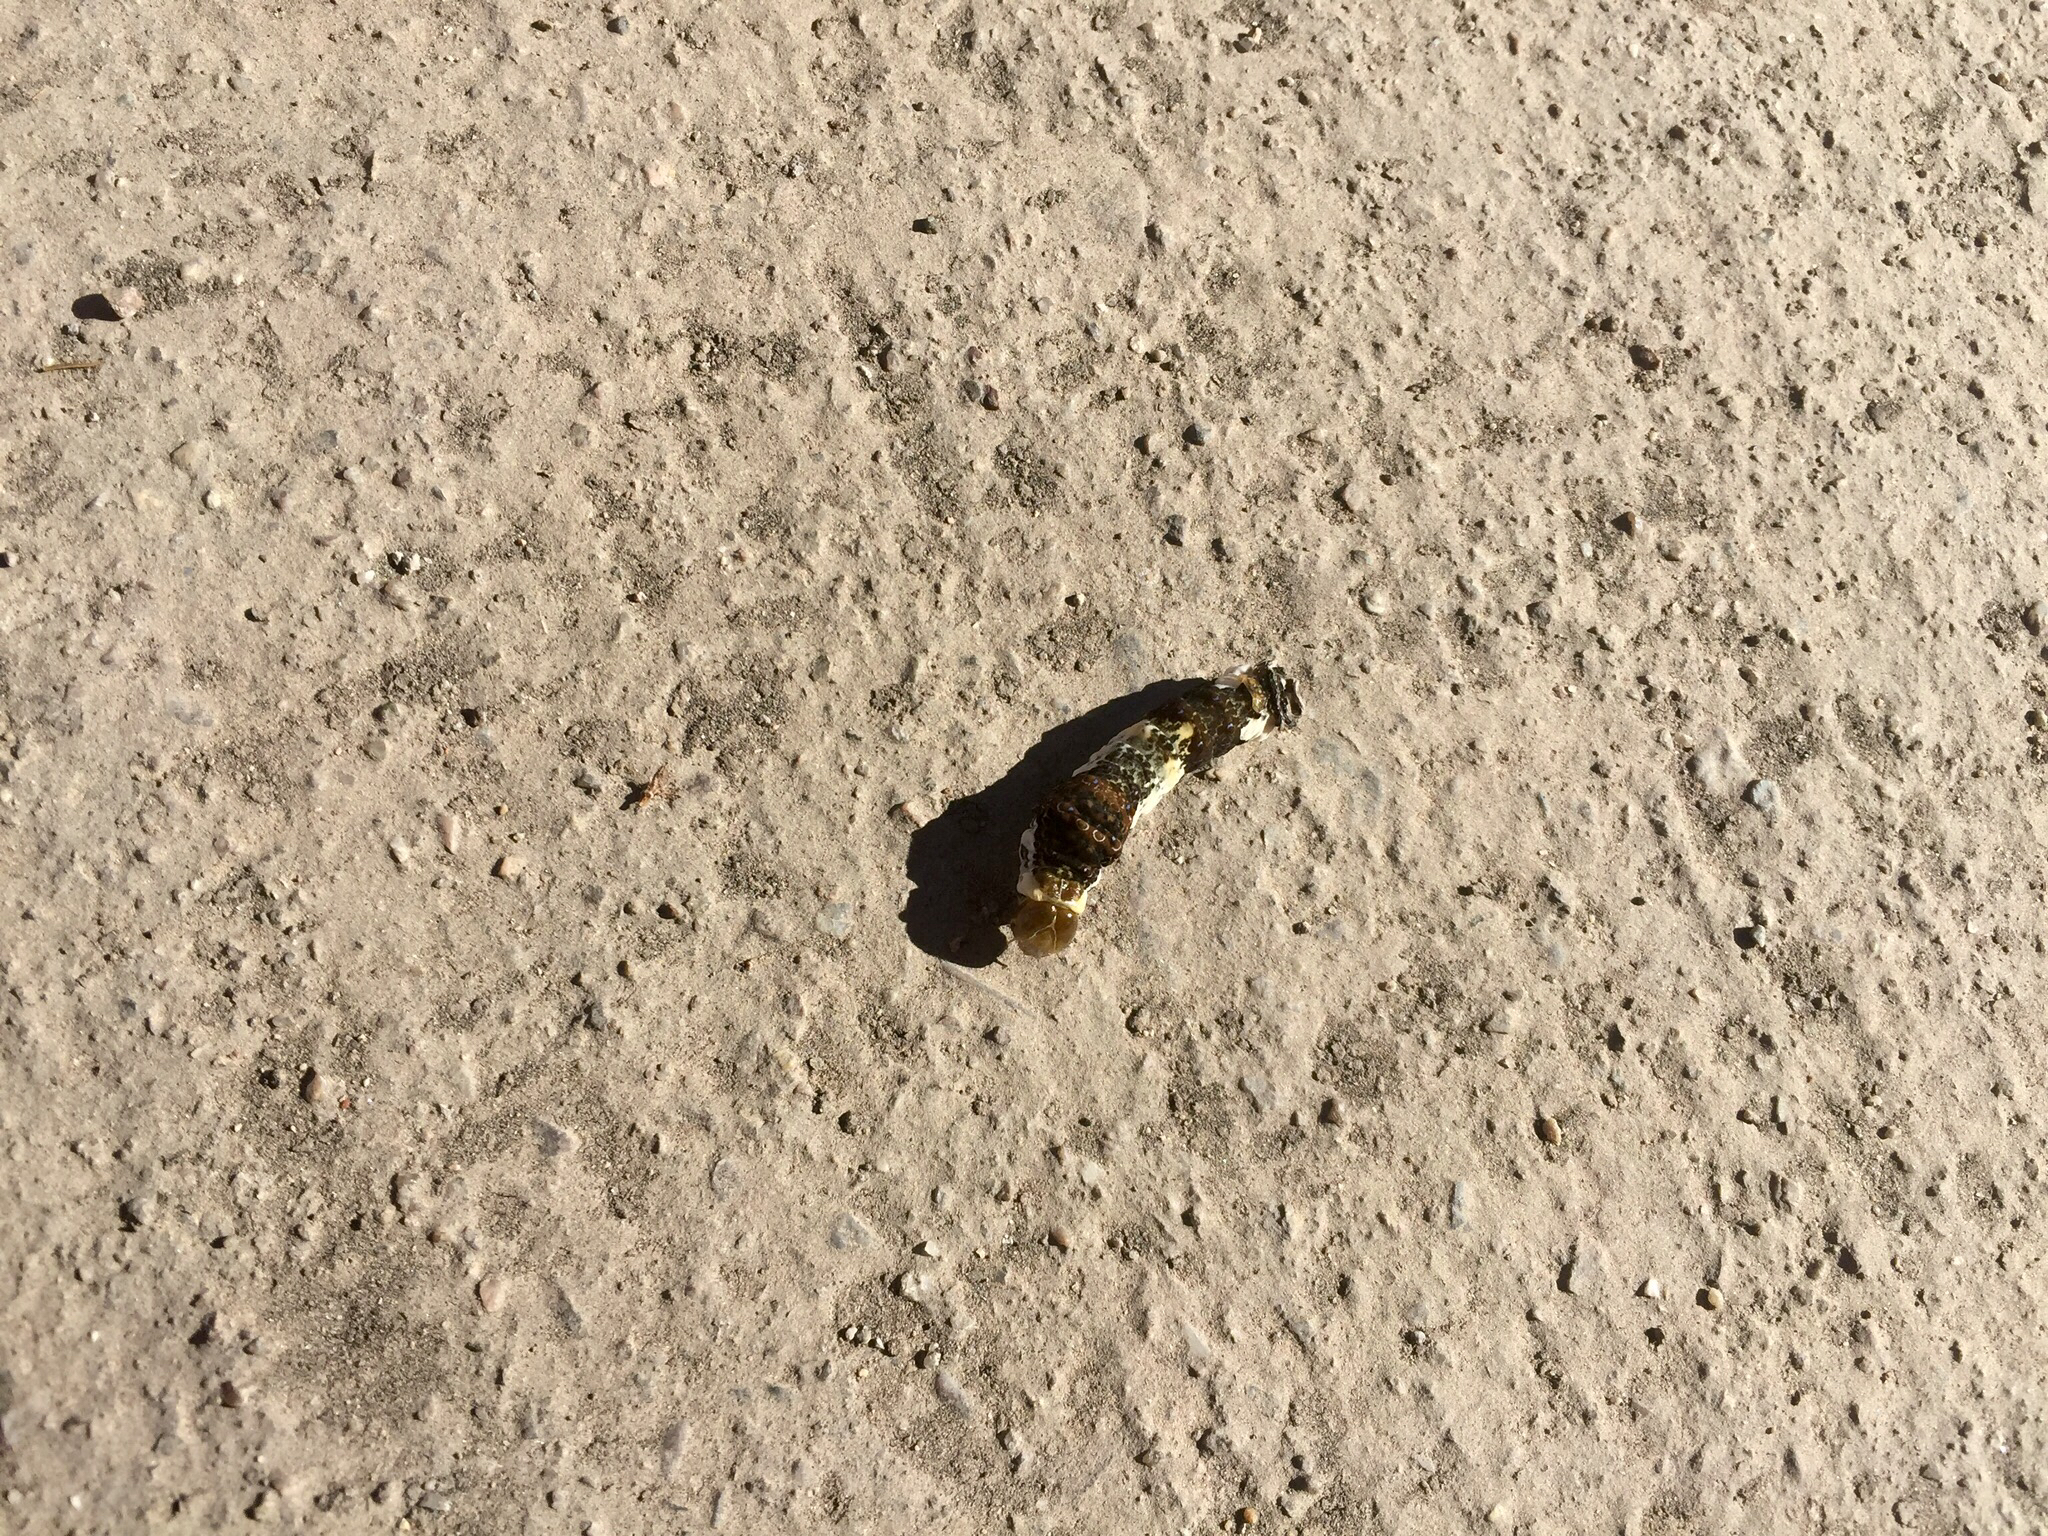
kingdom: Animalia
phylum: Arthropoda
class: Insecta
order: Lepidoptera
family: Papilionidae
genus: Papilio
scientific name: Papilio rumiko
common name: Western giant swallowtail
